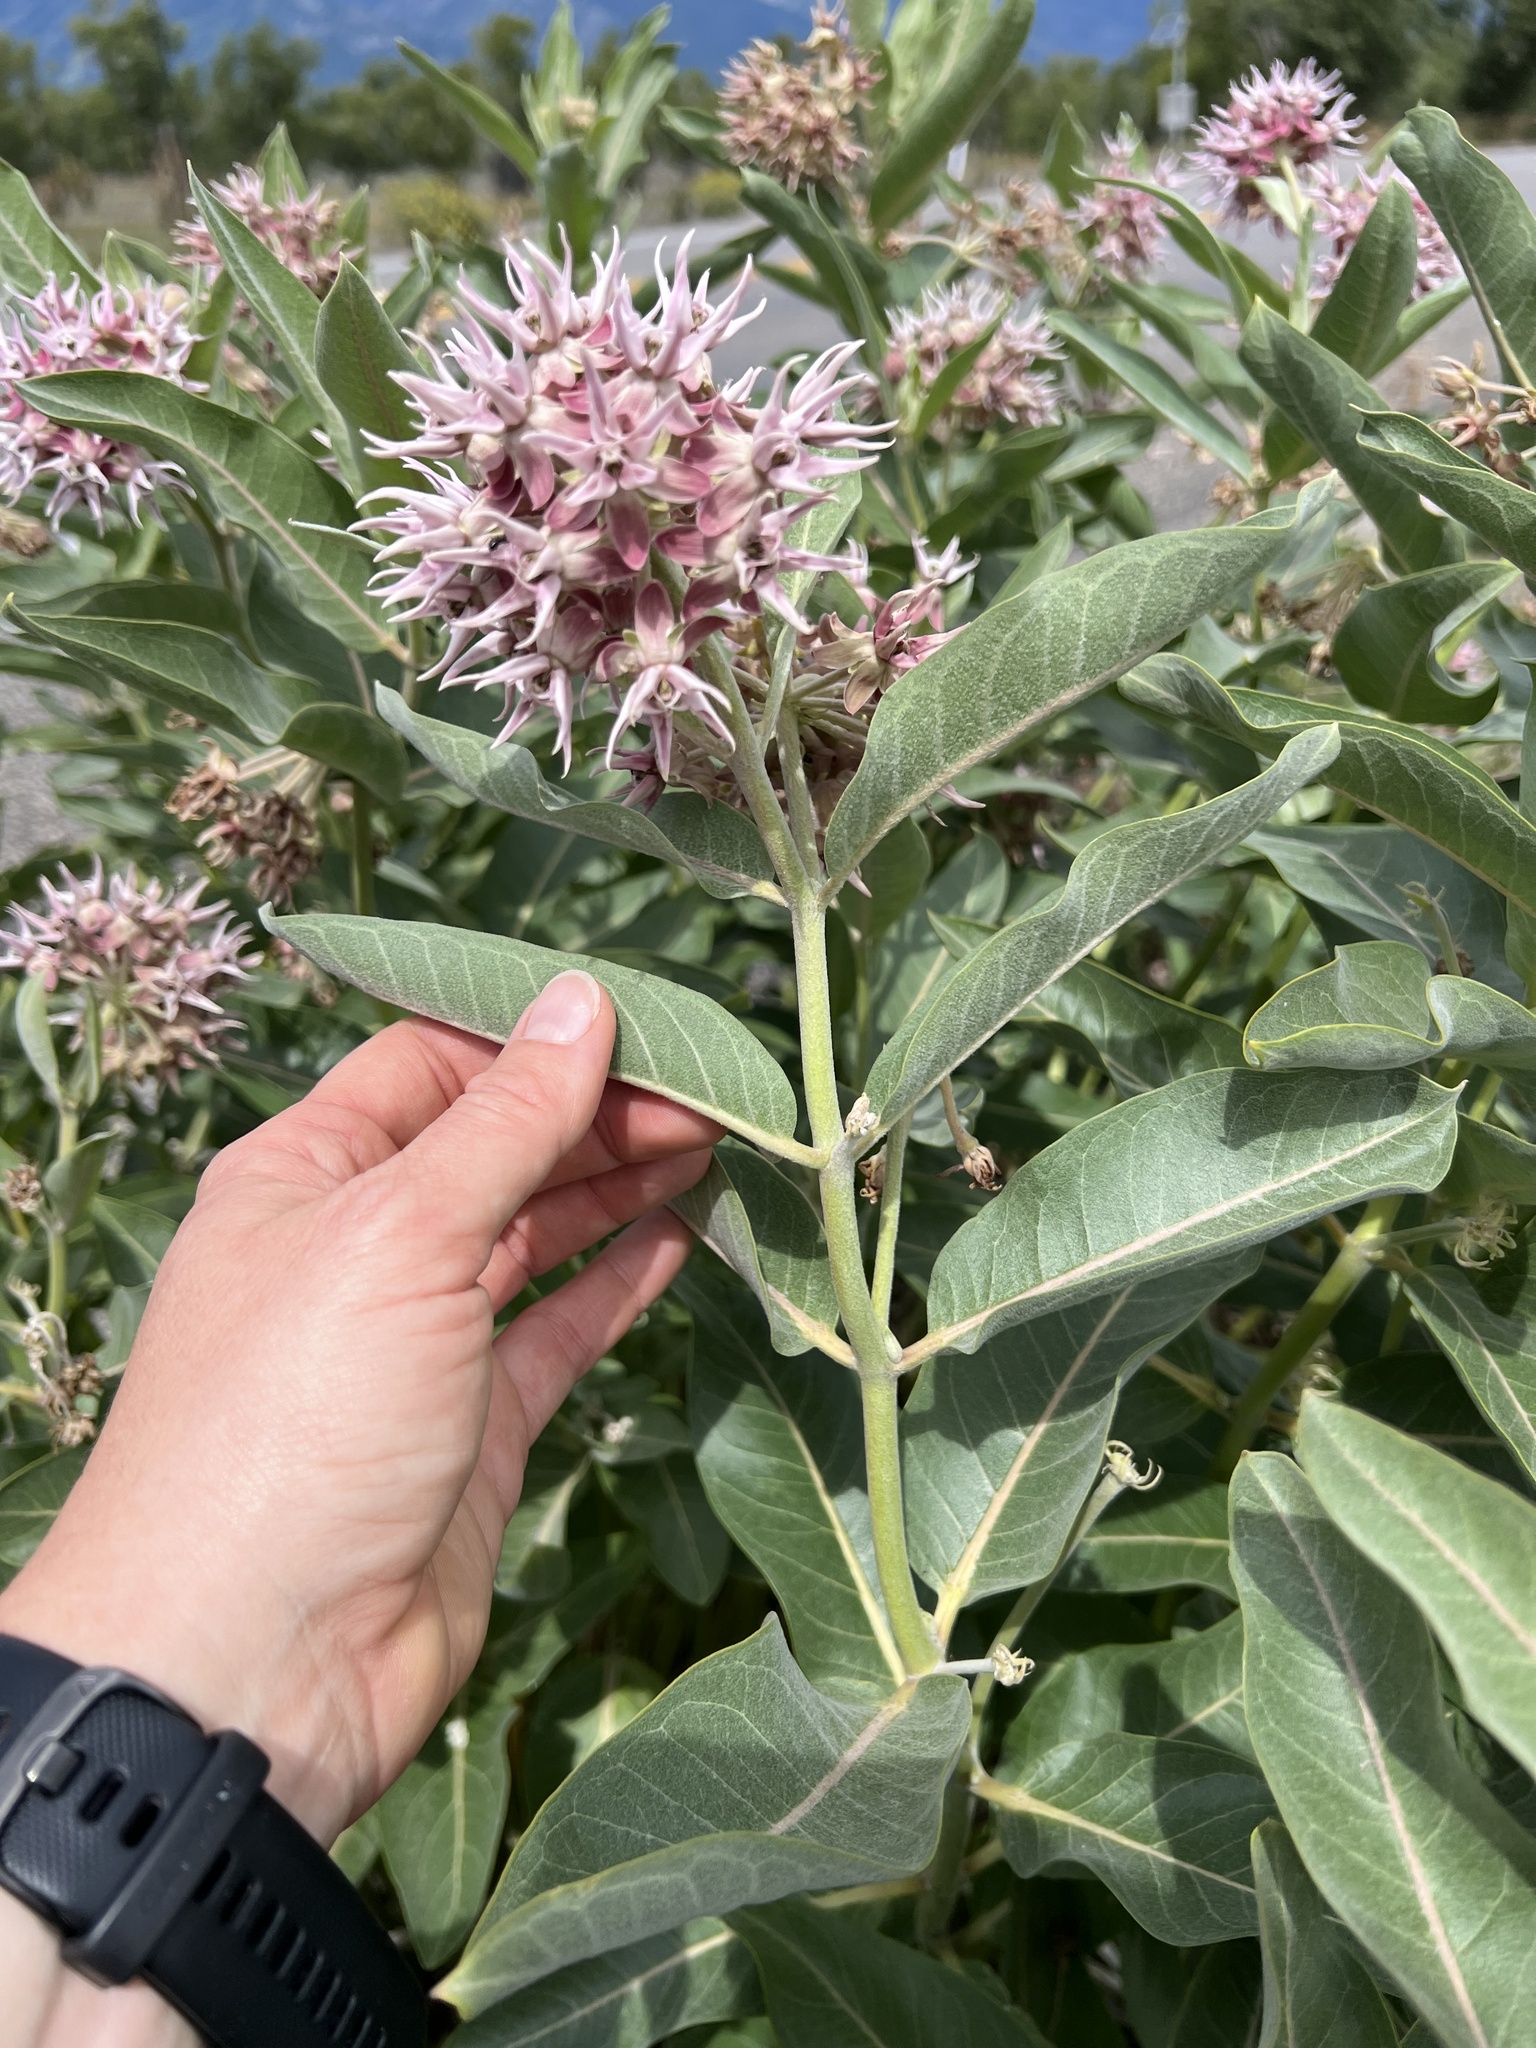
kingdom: Plantae
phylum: Tracheophyta
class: Magnoliopsida
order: Gentianales
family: Apocynaceae
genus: Asclepias
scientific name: Asclepias speciosa
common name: Showy milkweed
